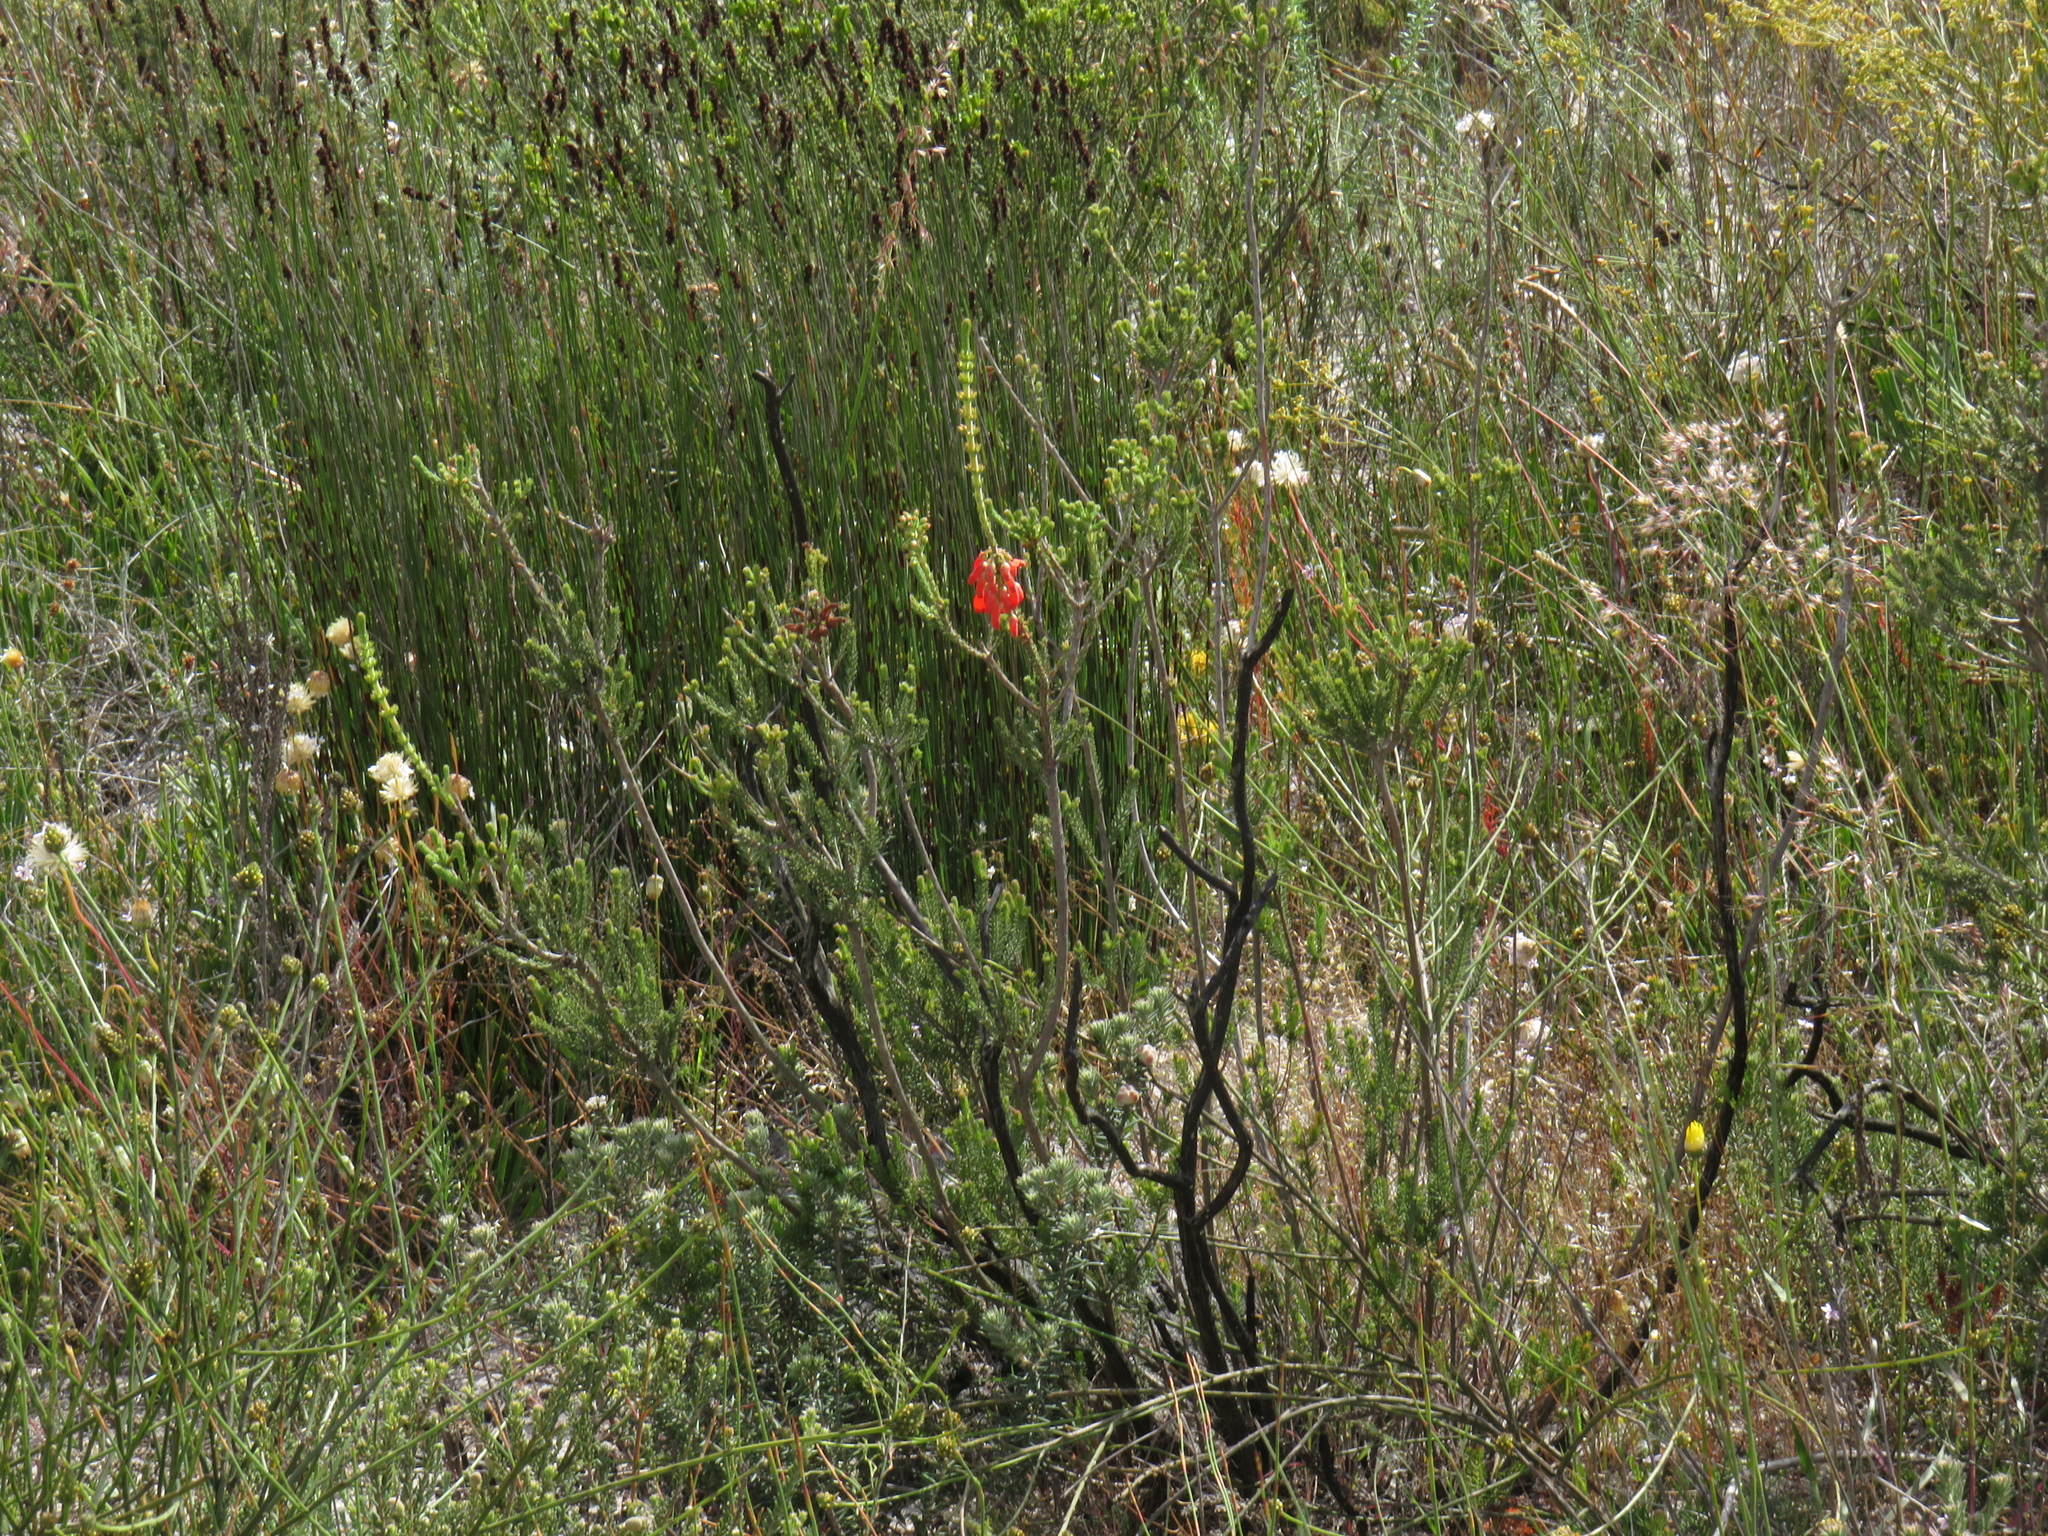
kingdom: Plantae
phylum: Tracheophyta
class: Magnoliopsida
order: Ericales
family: Ericaceae
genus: Erica
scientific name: Erica mammosa
